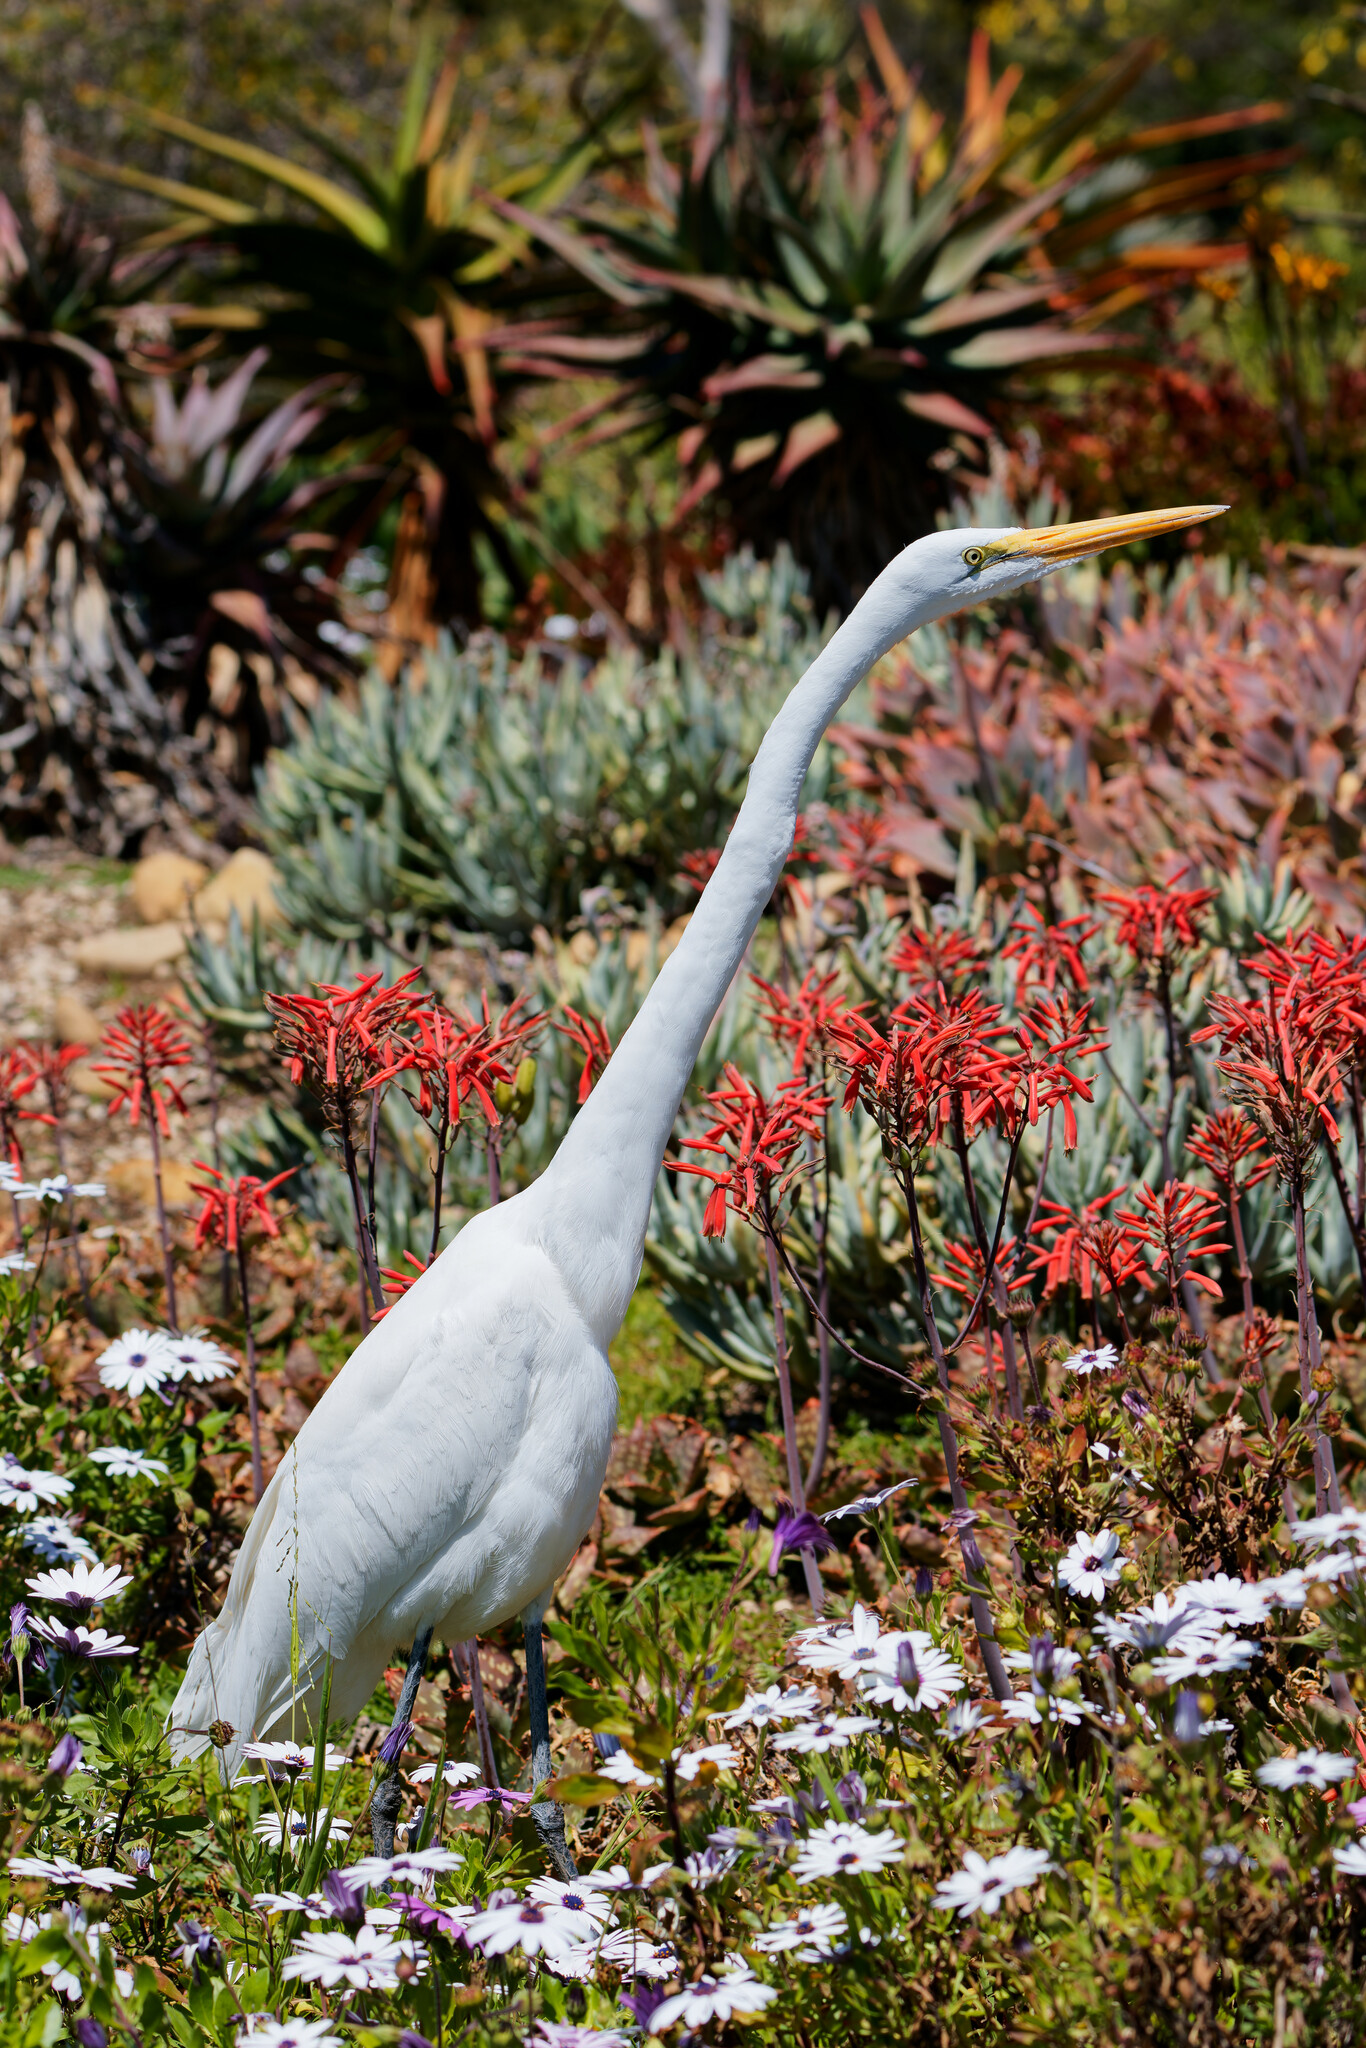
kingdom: Animalia
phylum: Chordata
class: Aves
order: Pelecaniformes
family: Ardeidae
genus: Ardea
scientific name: Ardea alba
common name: Great egret
